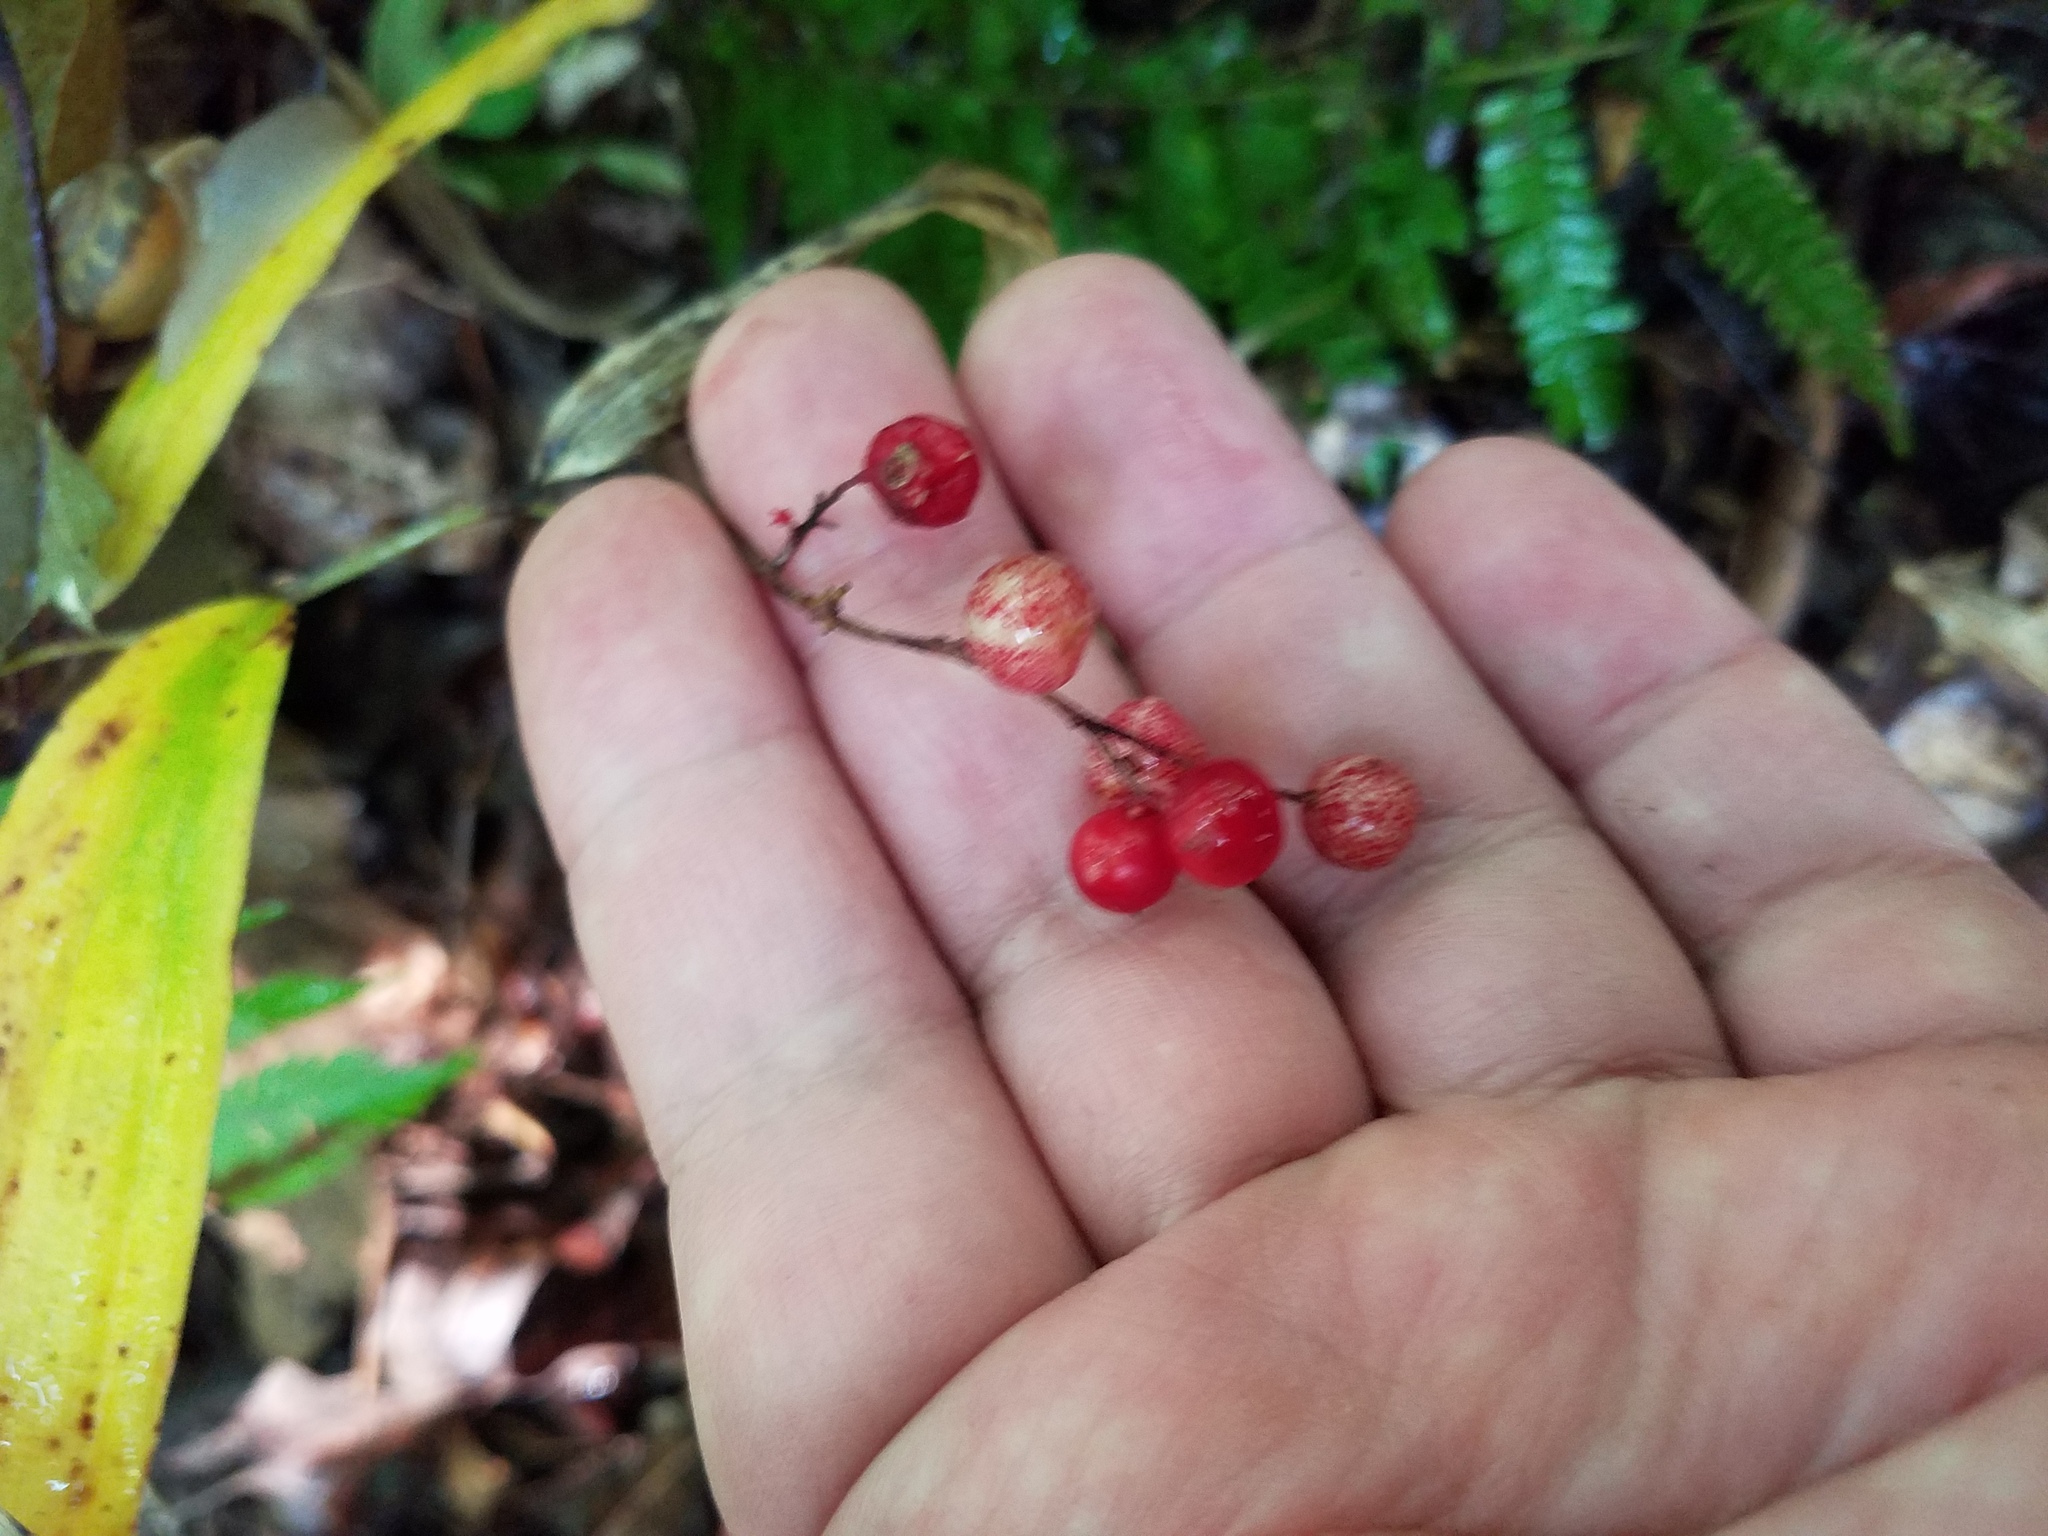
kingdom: Plantae
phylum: Tracheophyta
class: Liliopsida
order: Asparagales
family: Asparagaceae
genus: Maianthemum
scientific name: Maianthemum racemosum
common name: False spikenard
